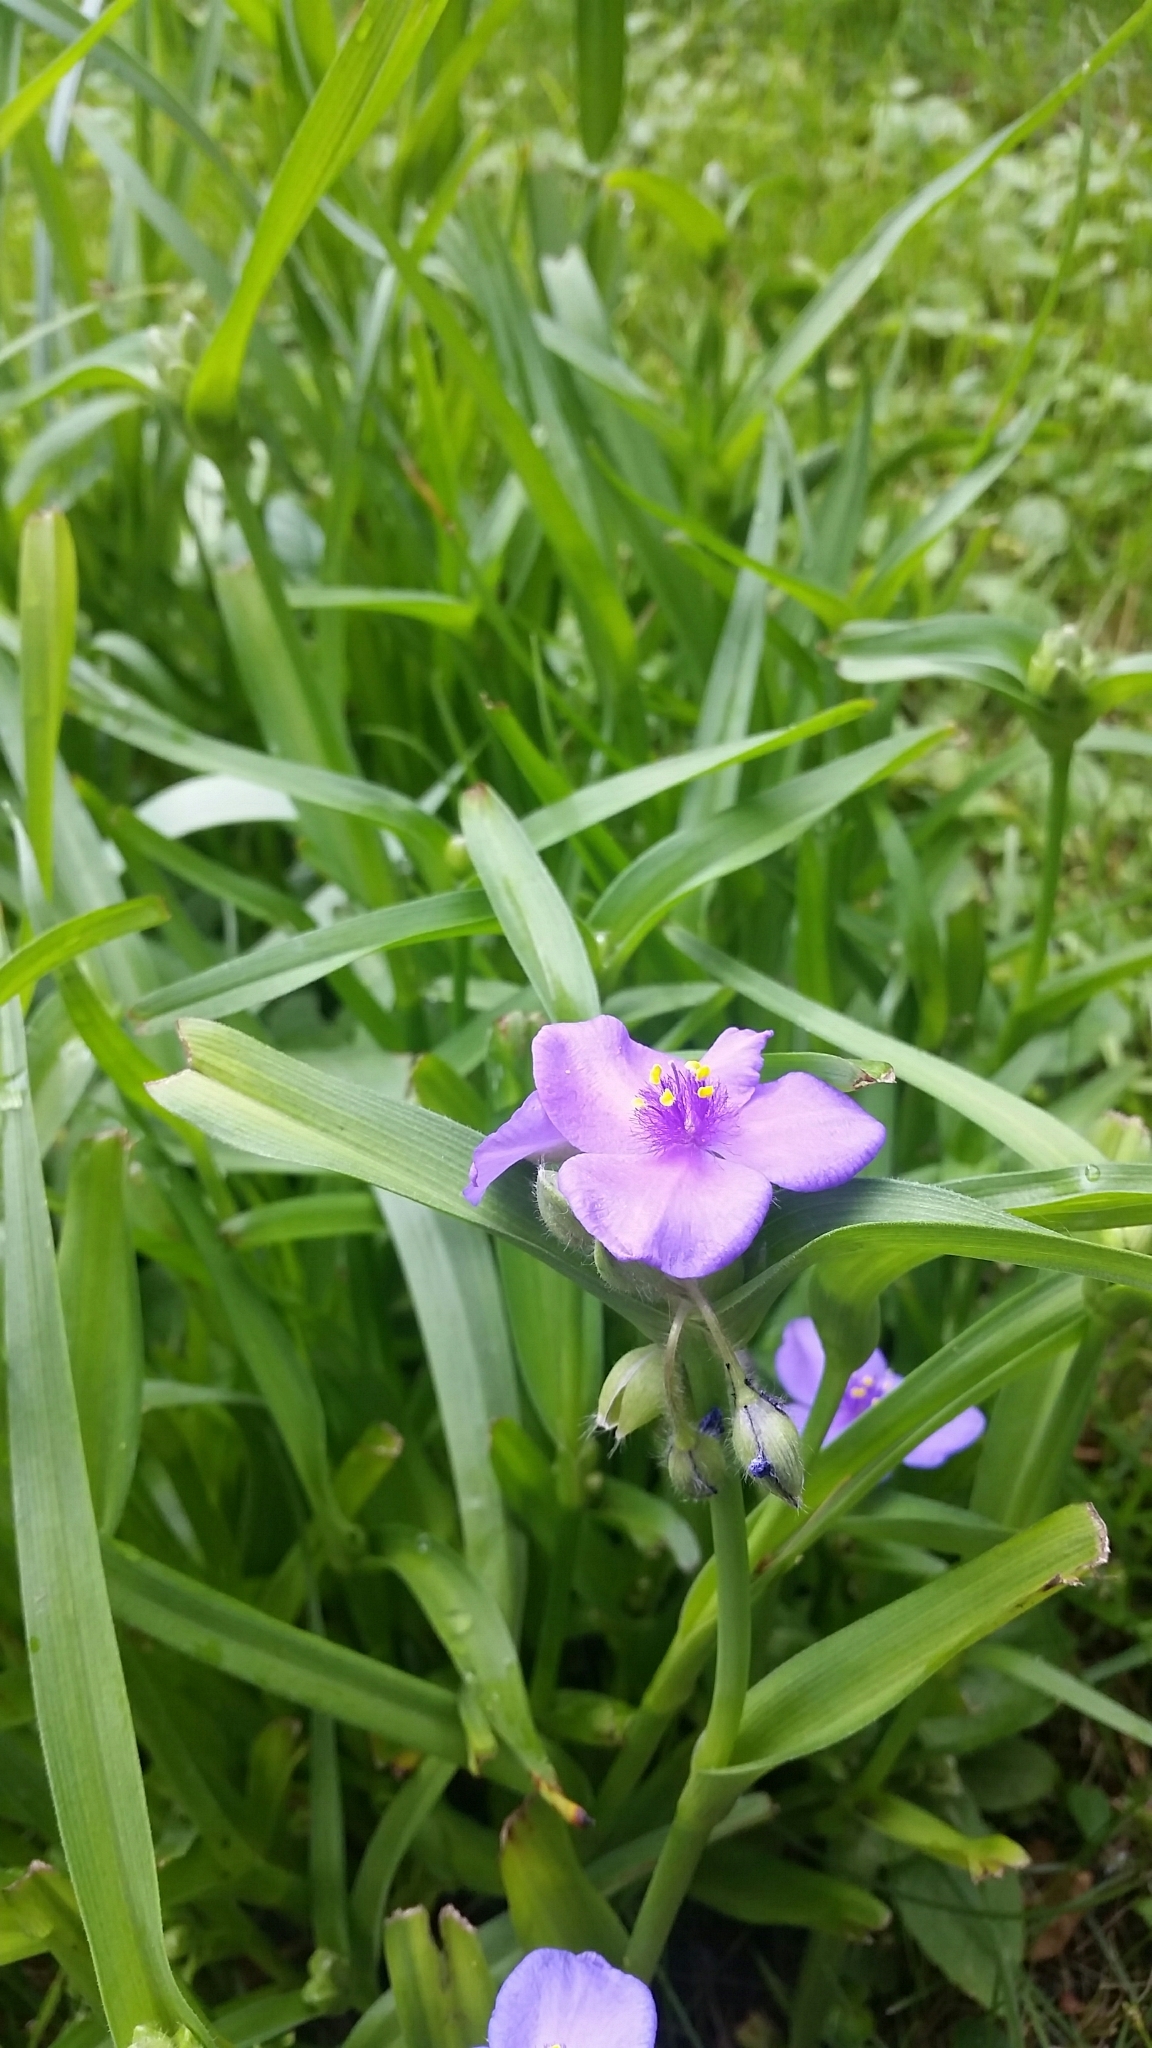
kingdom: Plantae
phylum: Tracheophyta
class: Liliopsida
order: Commelinales
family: Commelinaceae
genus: Tradescantia
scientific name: Tradescantia ohiensis
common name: Ohio spiderwort
